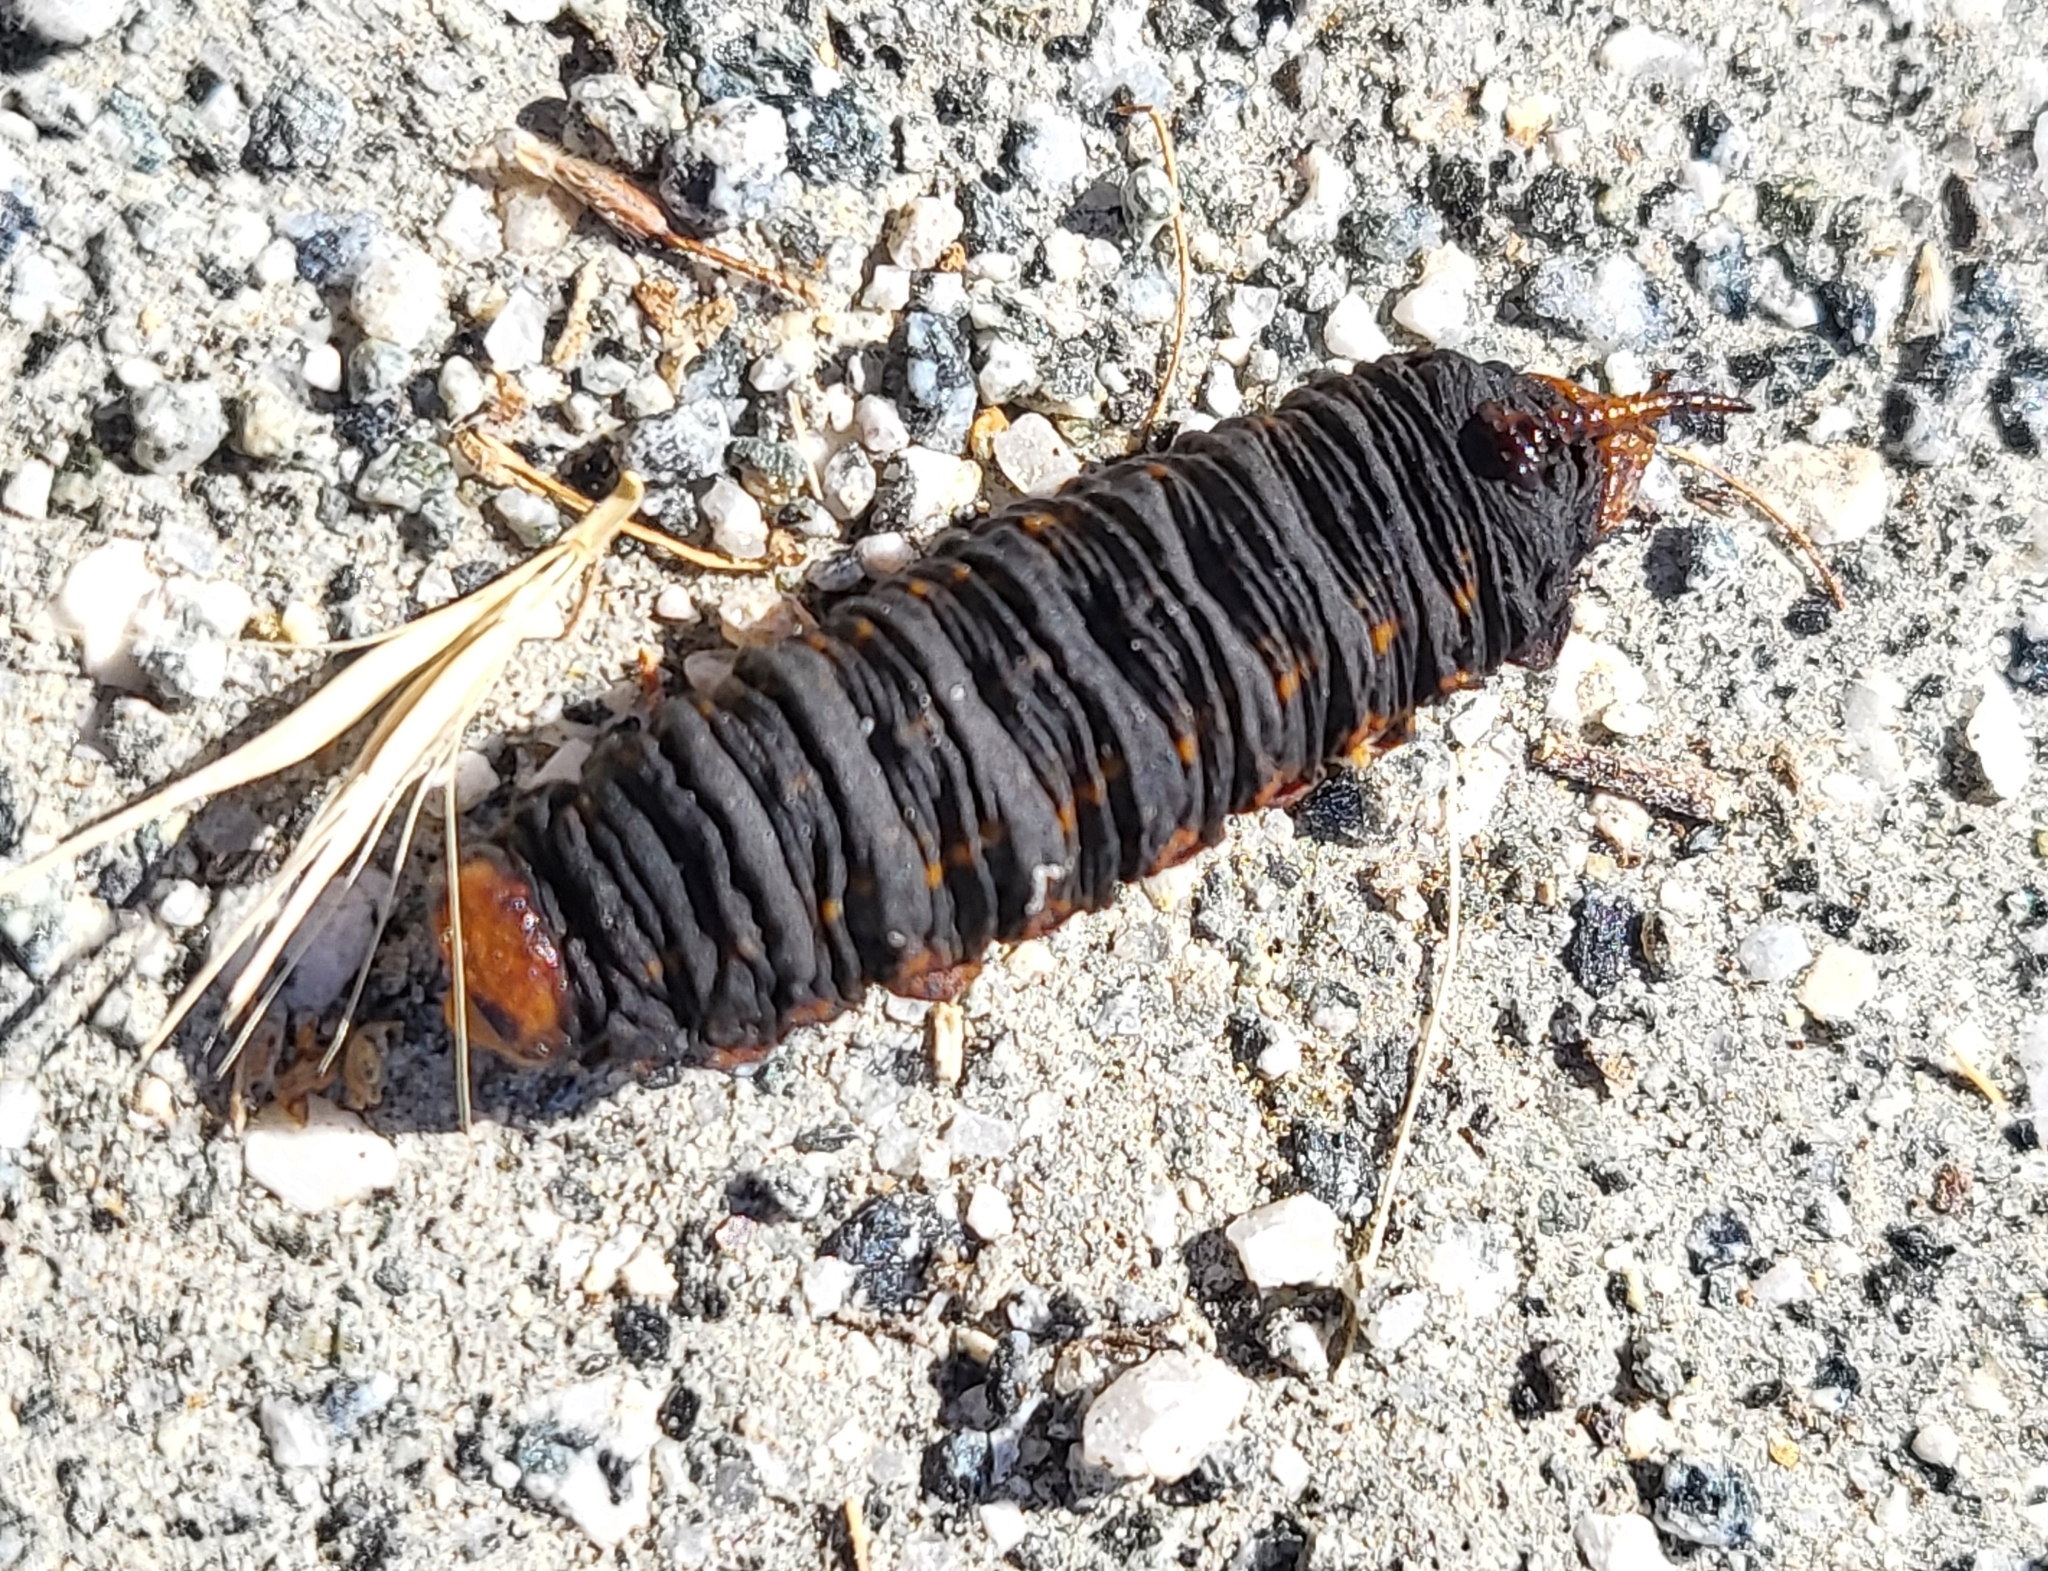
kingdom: Animalia
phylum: Arthropoda
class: Insecta
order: Lepidoptera
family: Sphingidae
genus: Hyles
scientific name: Hyles lineata
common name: White-lined sphinx
